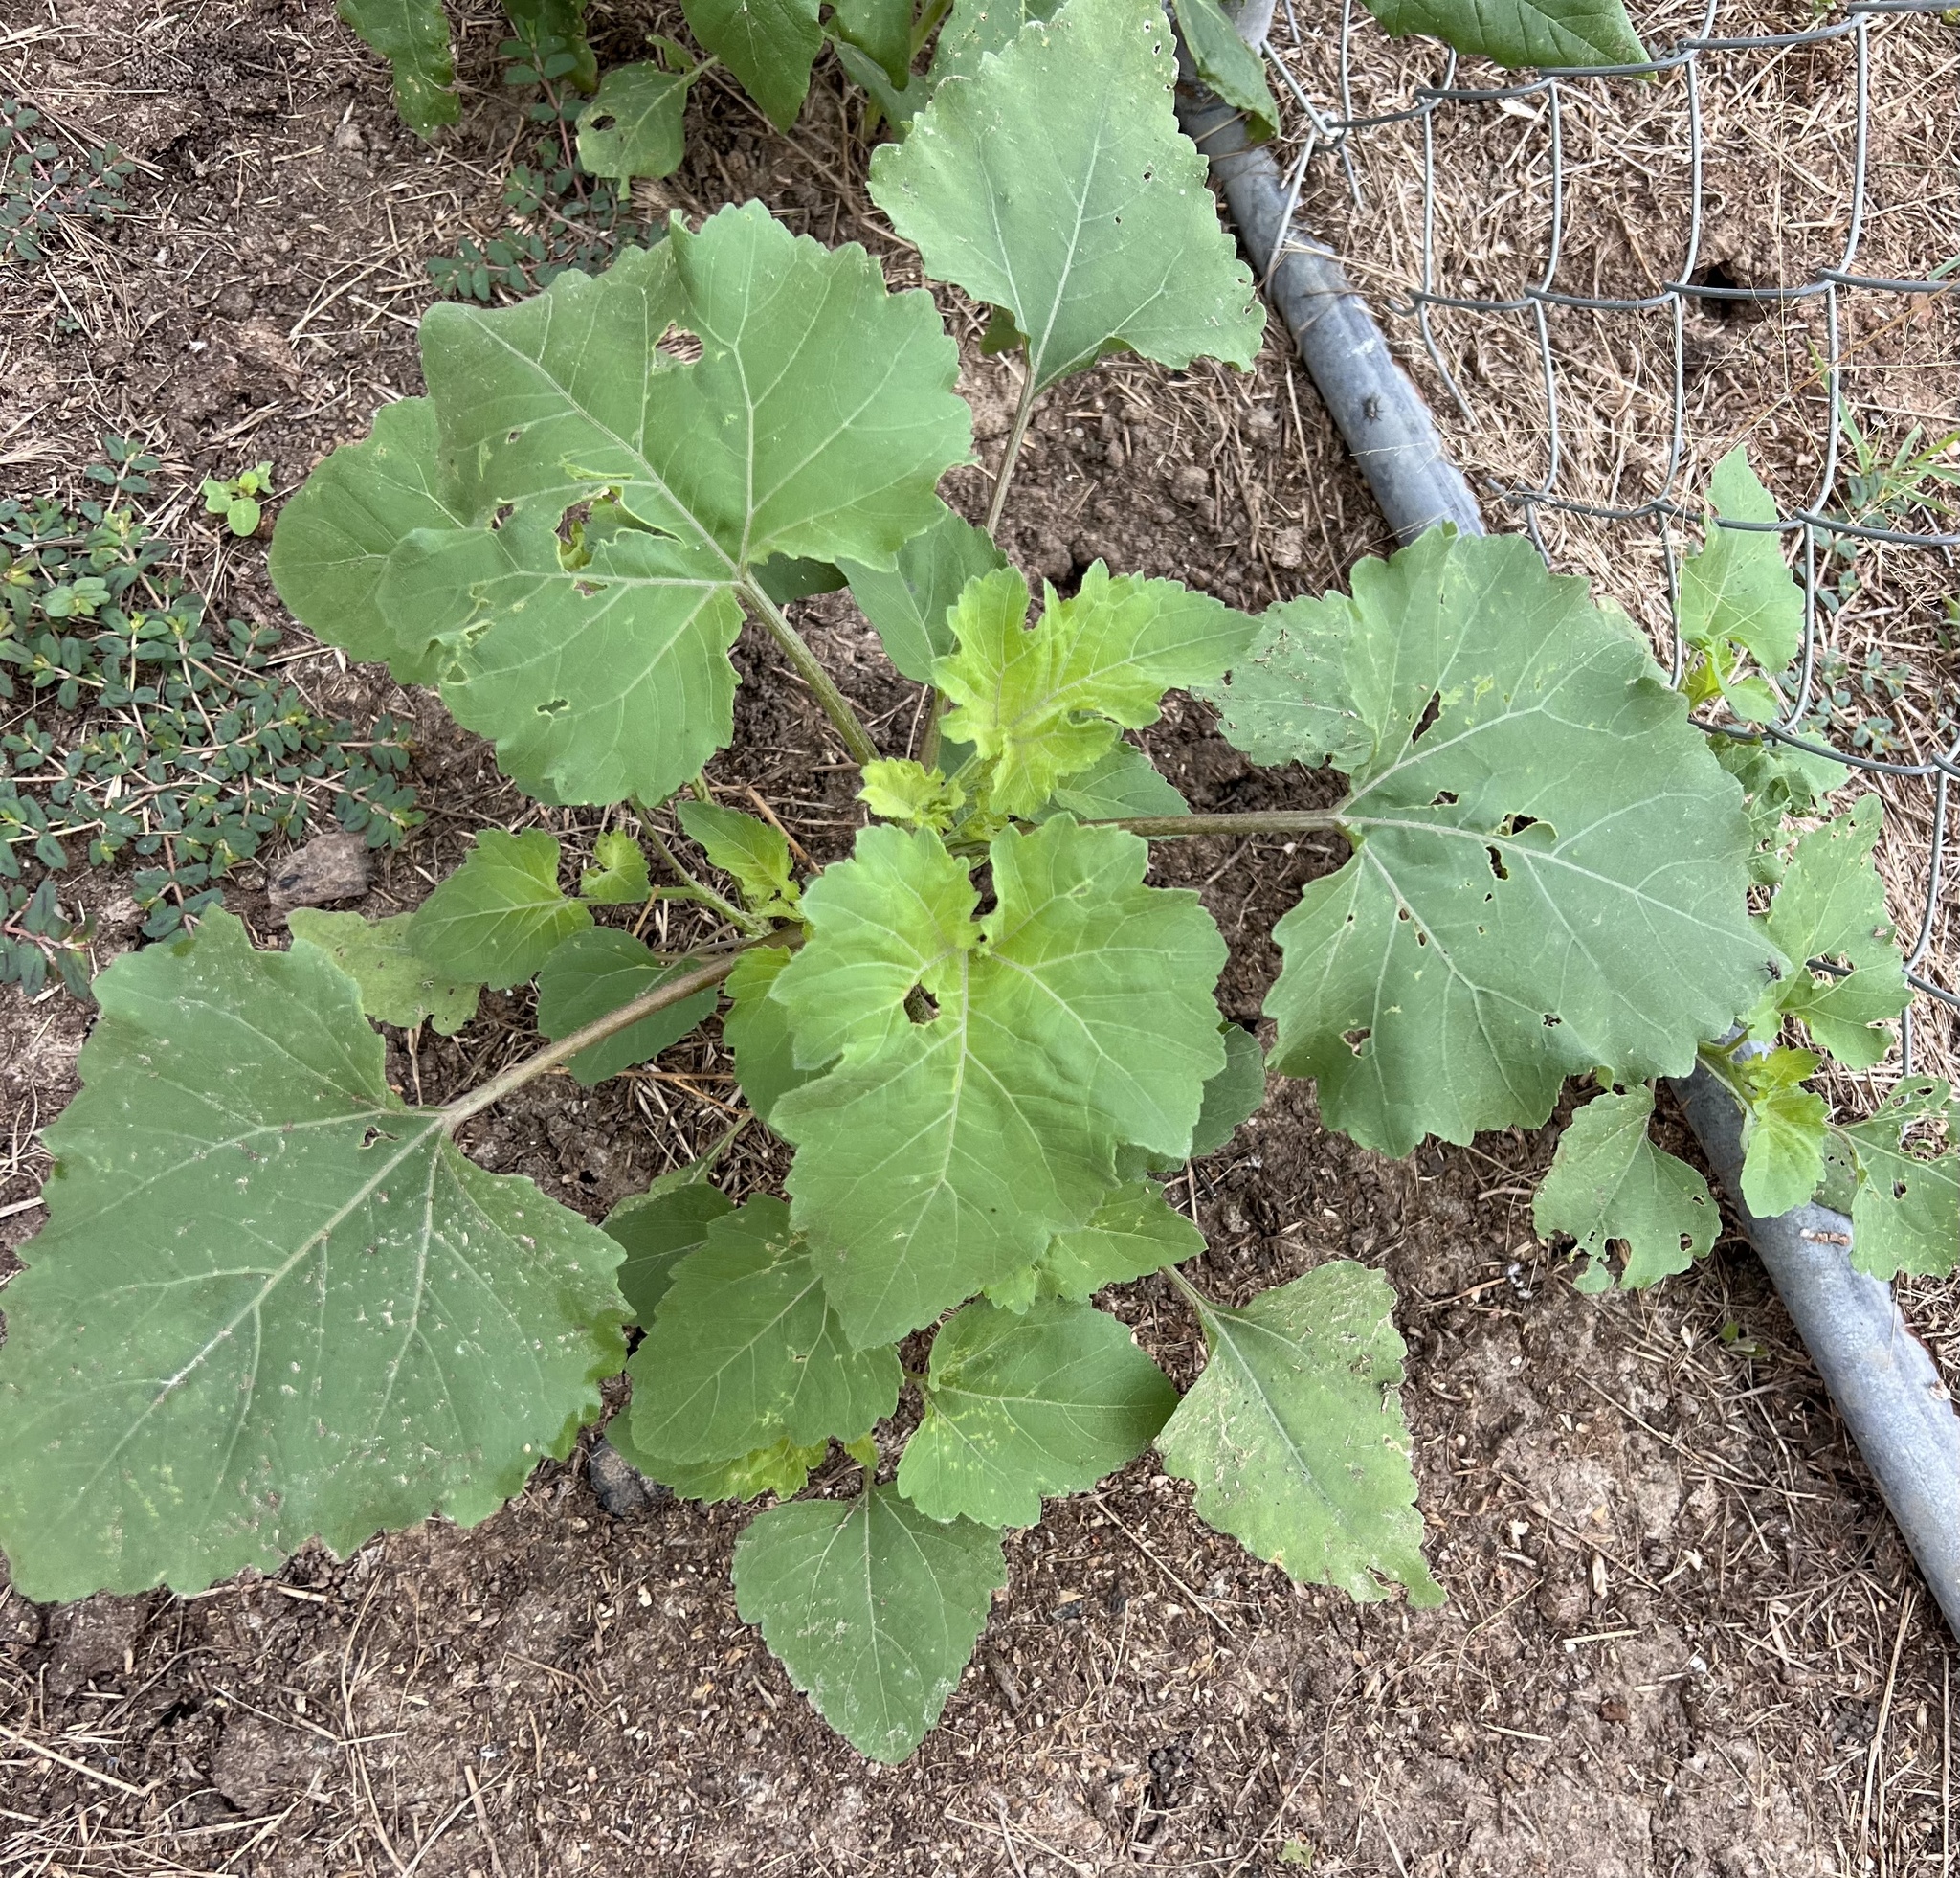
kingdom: Plantae
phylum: Tracheophyta
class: Magnoliopsida
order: Asterales
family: Asteraceae
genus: Xanthium
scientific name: Xanthium strumarium
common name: Rough cocklebur
